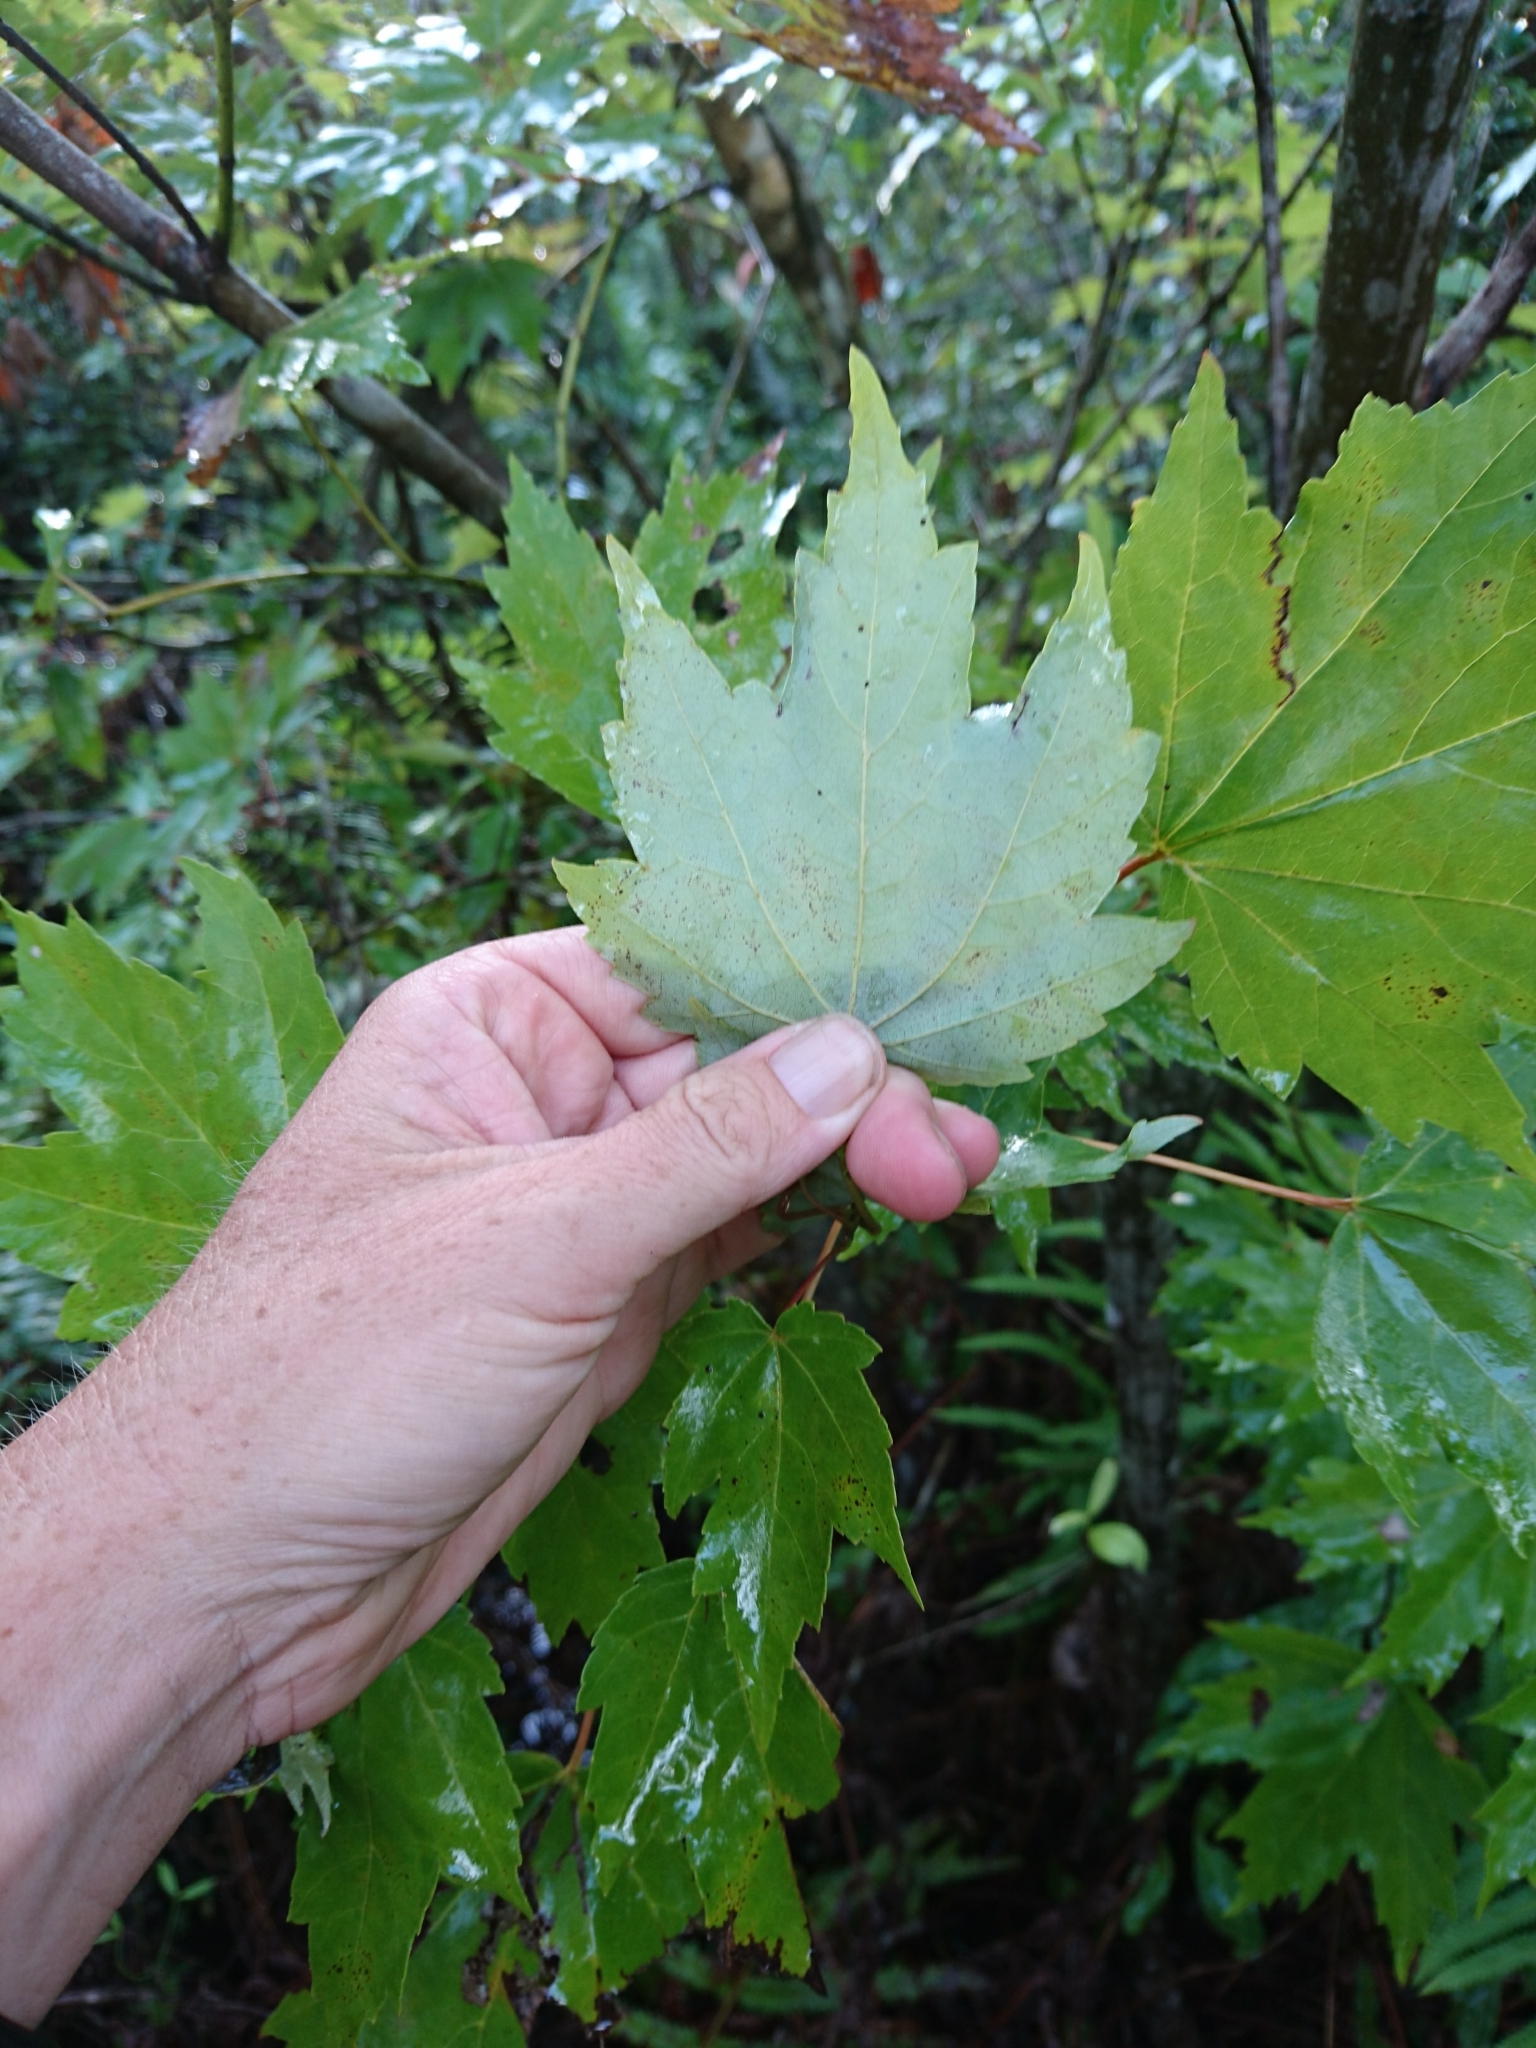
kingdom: Plantae
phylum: Tracheophyta
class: Magnoliopsida
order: Sapindales
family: Sapindaceae
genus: Acer
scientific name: Acer rubrum
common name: Red maple
